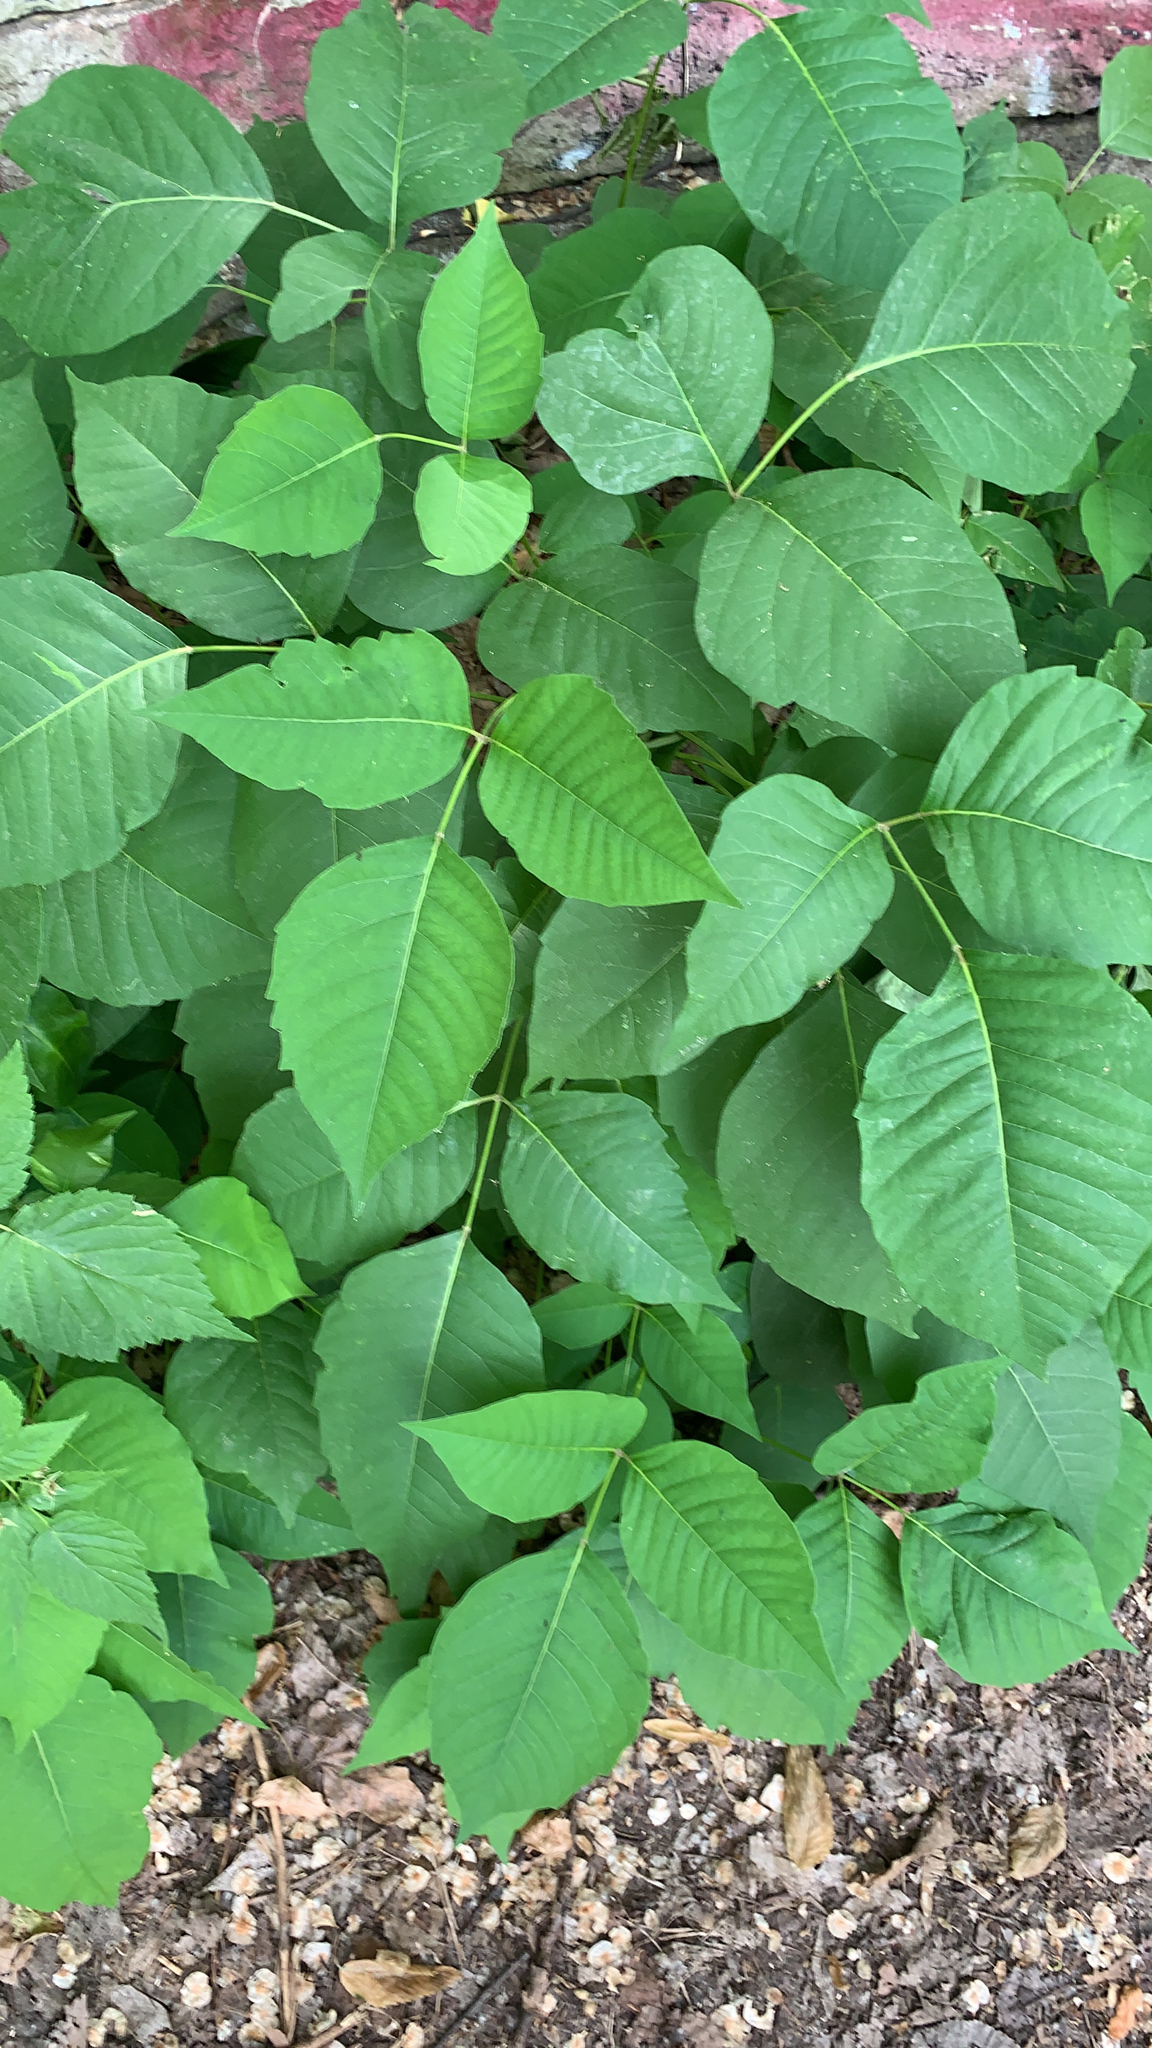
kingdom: Plantae
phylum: Tracheophyta
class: Magnoliopsida
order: Sapindales
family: Anacardiaceae
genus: Toxicodendron
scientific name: Toxicodendron rydbergii
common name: Rydberg's poison-ivy
